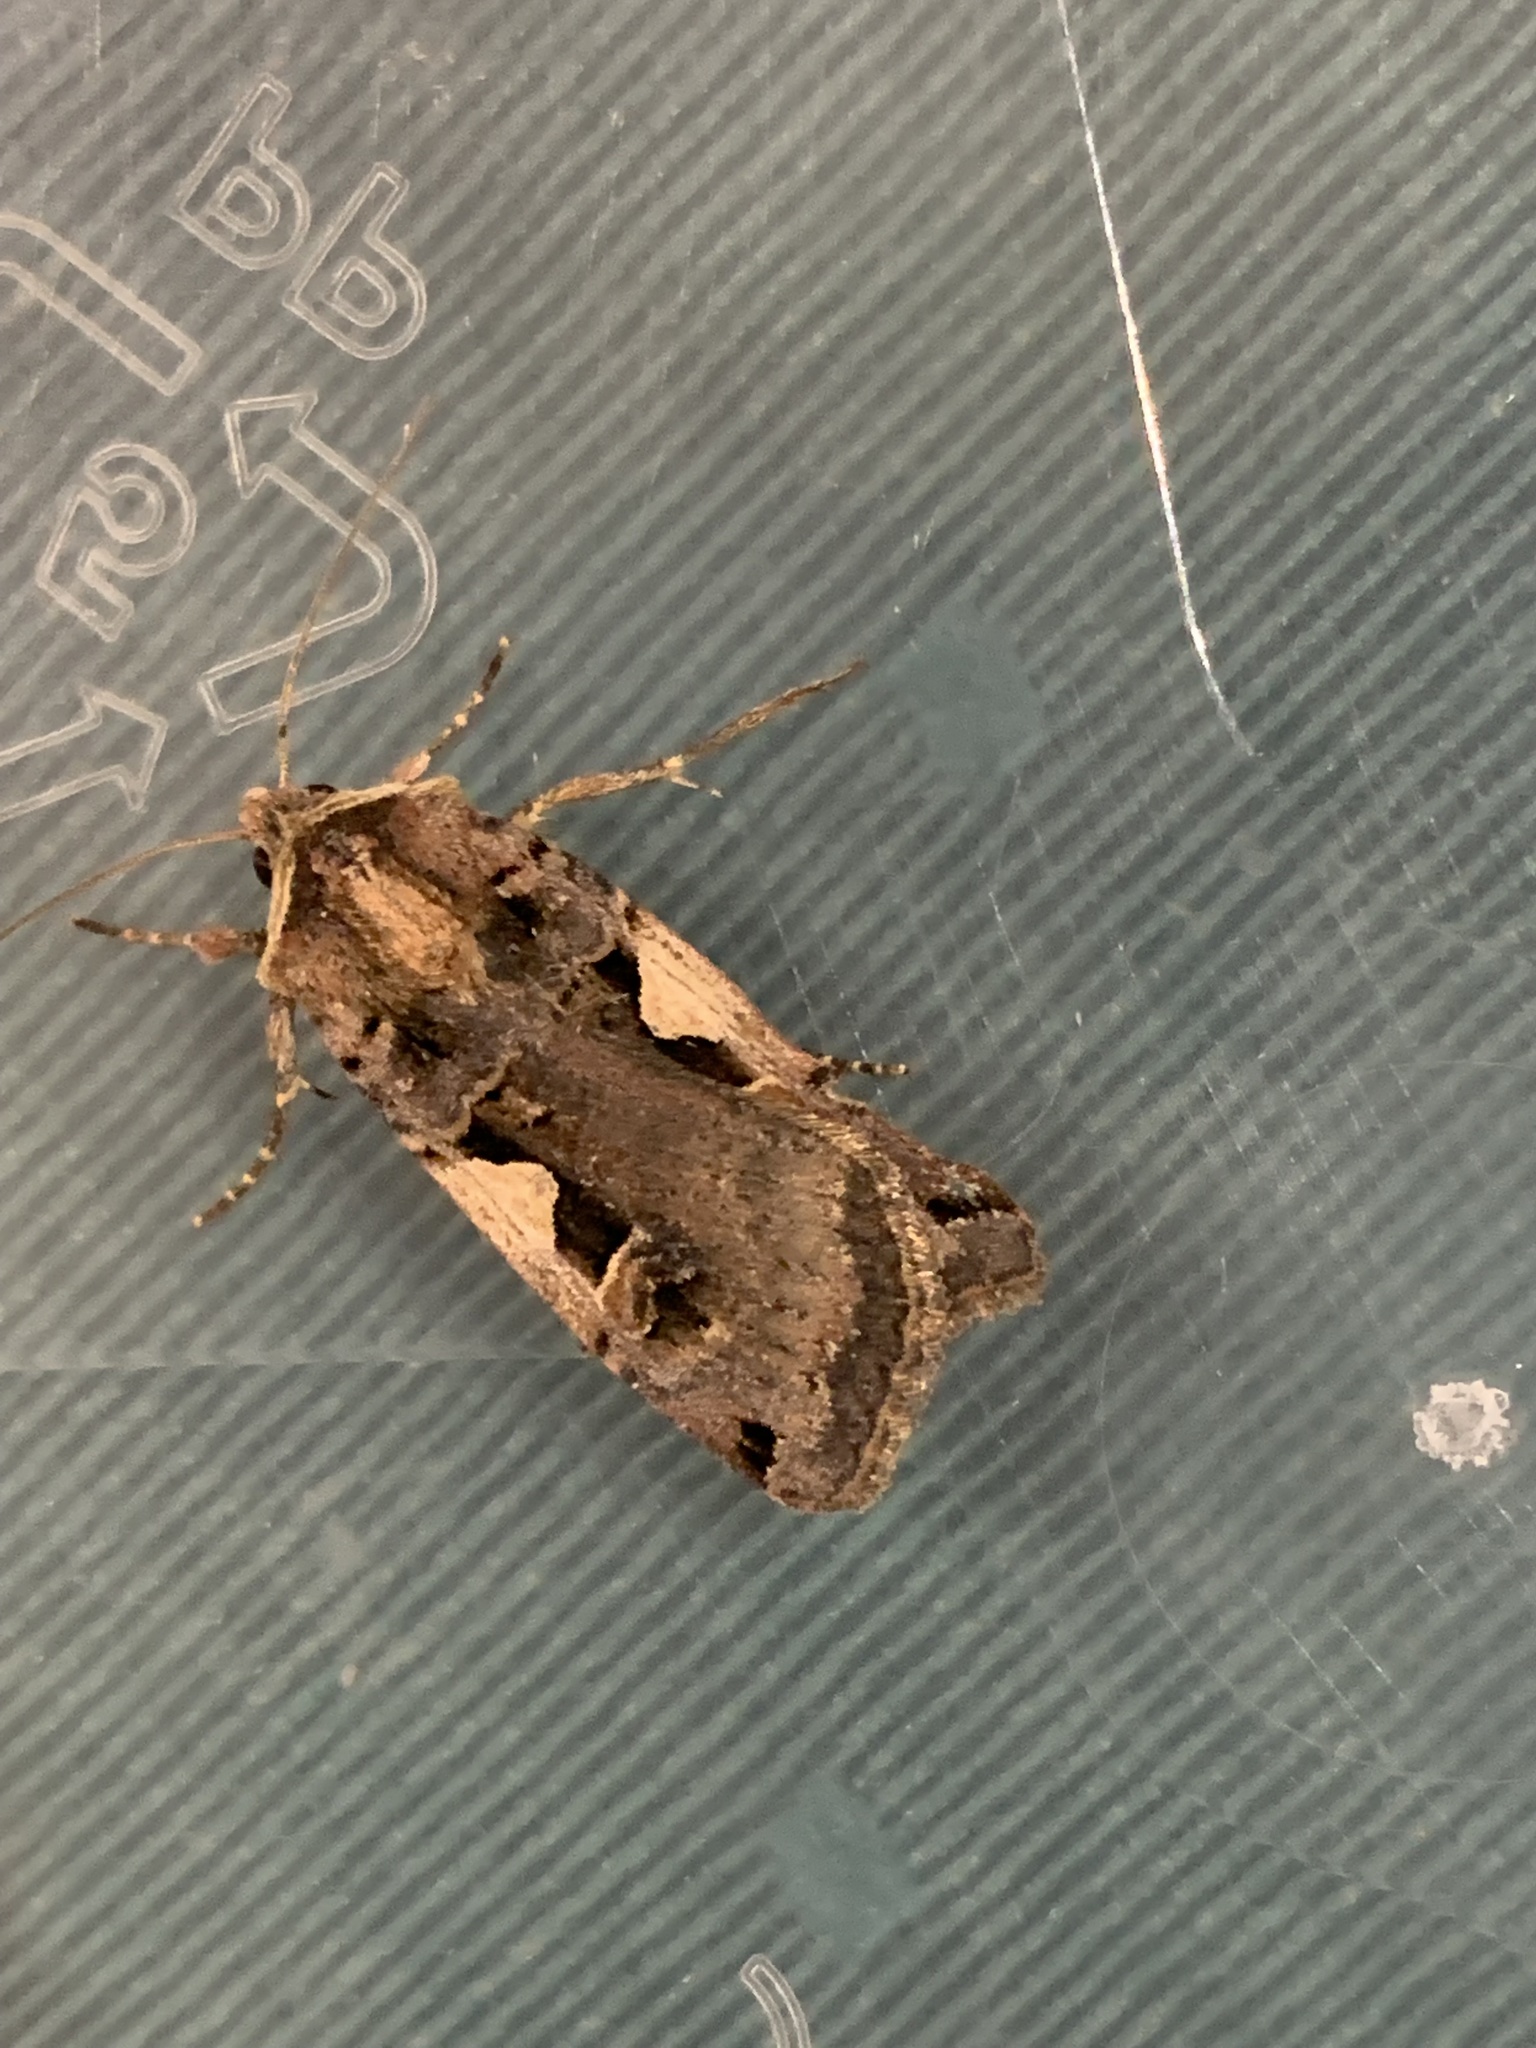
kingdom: Animalia
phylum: Arthropoda
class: Insecta
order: Lepidoptera
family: Noctuidae
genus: Xestia
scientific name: Xestia c-nigrum
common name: Setaceous hebrew character
